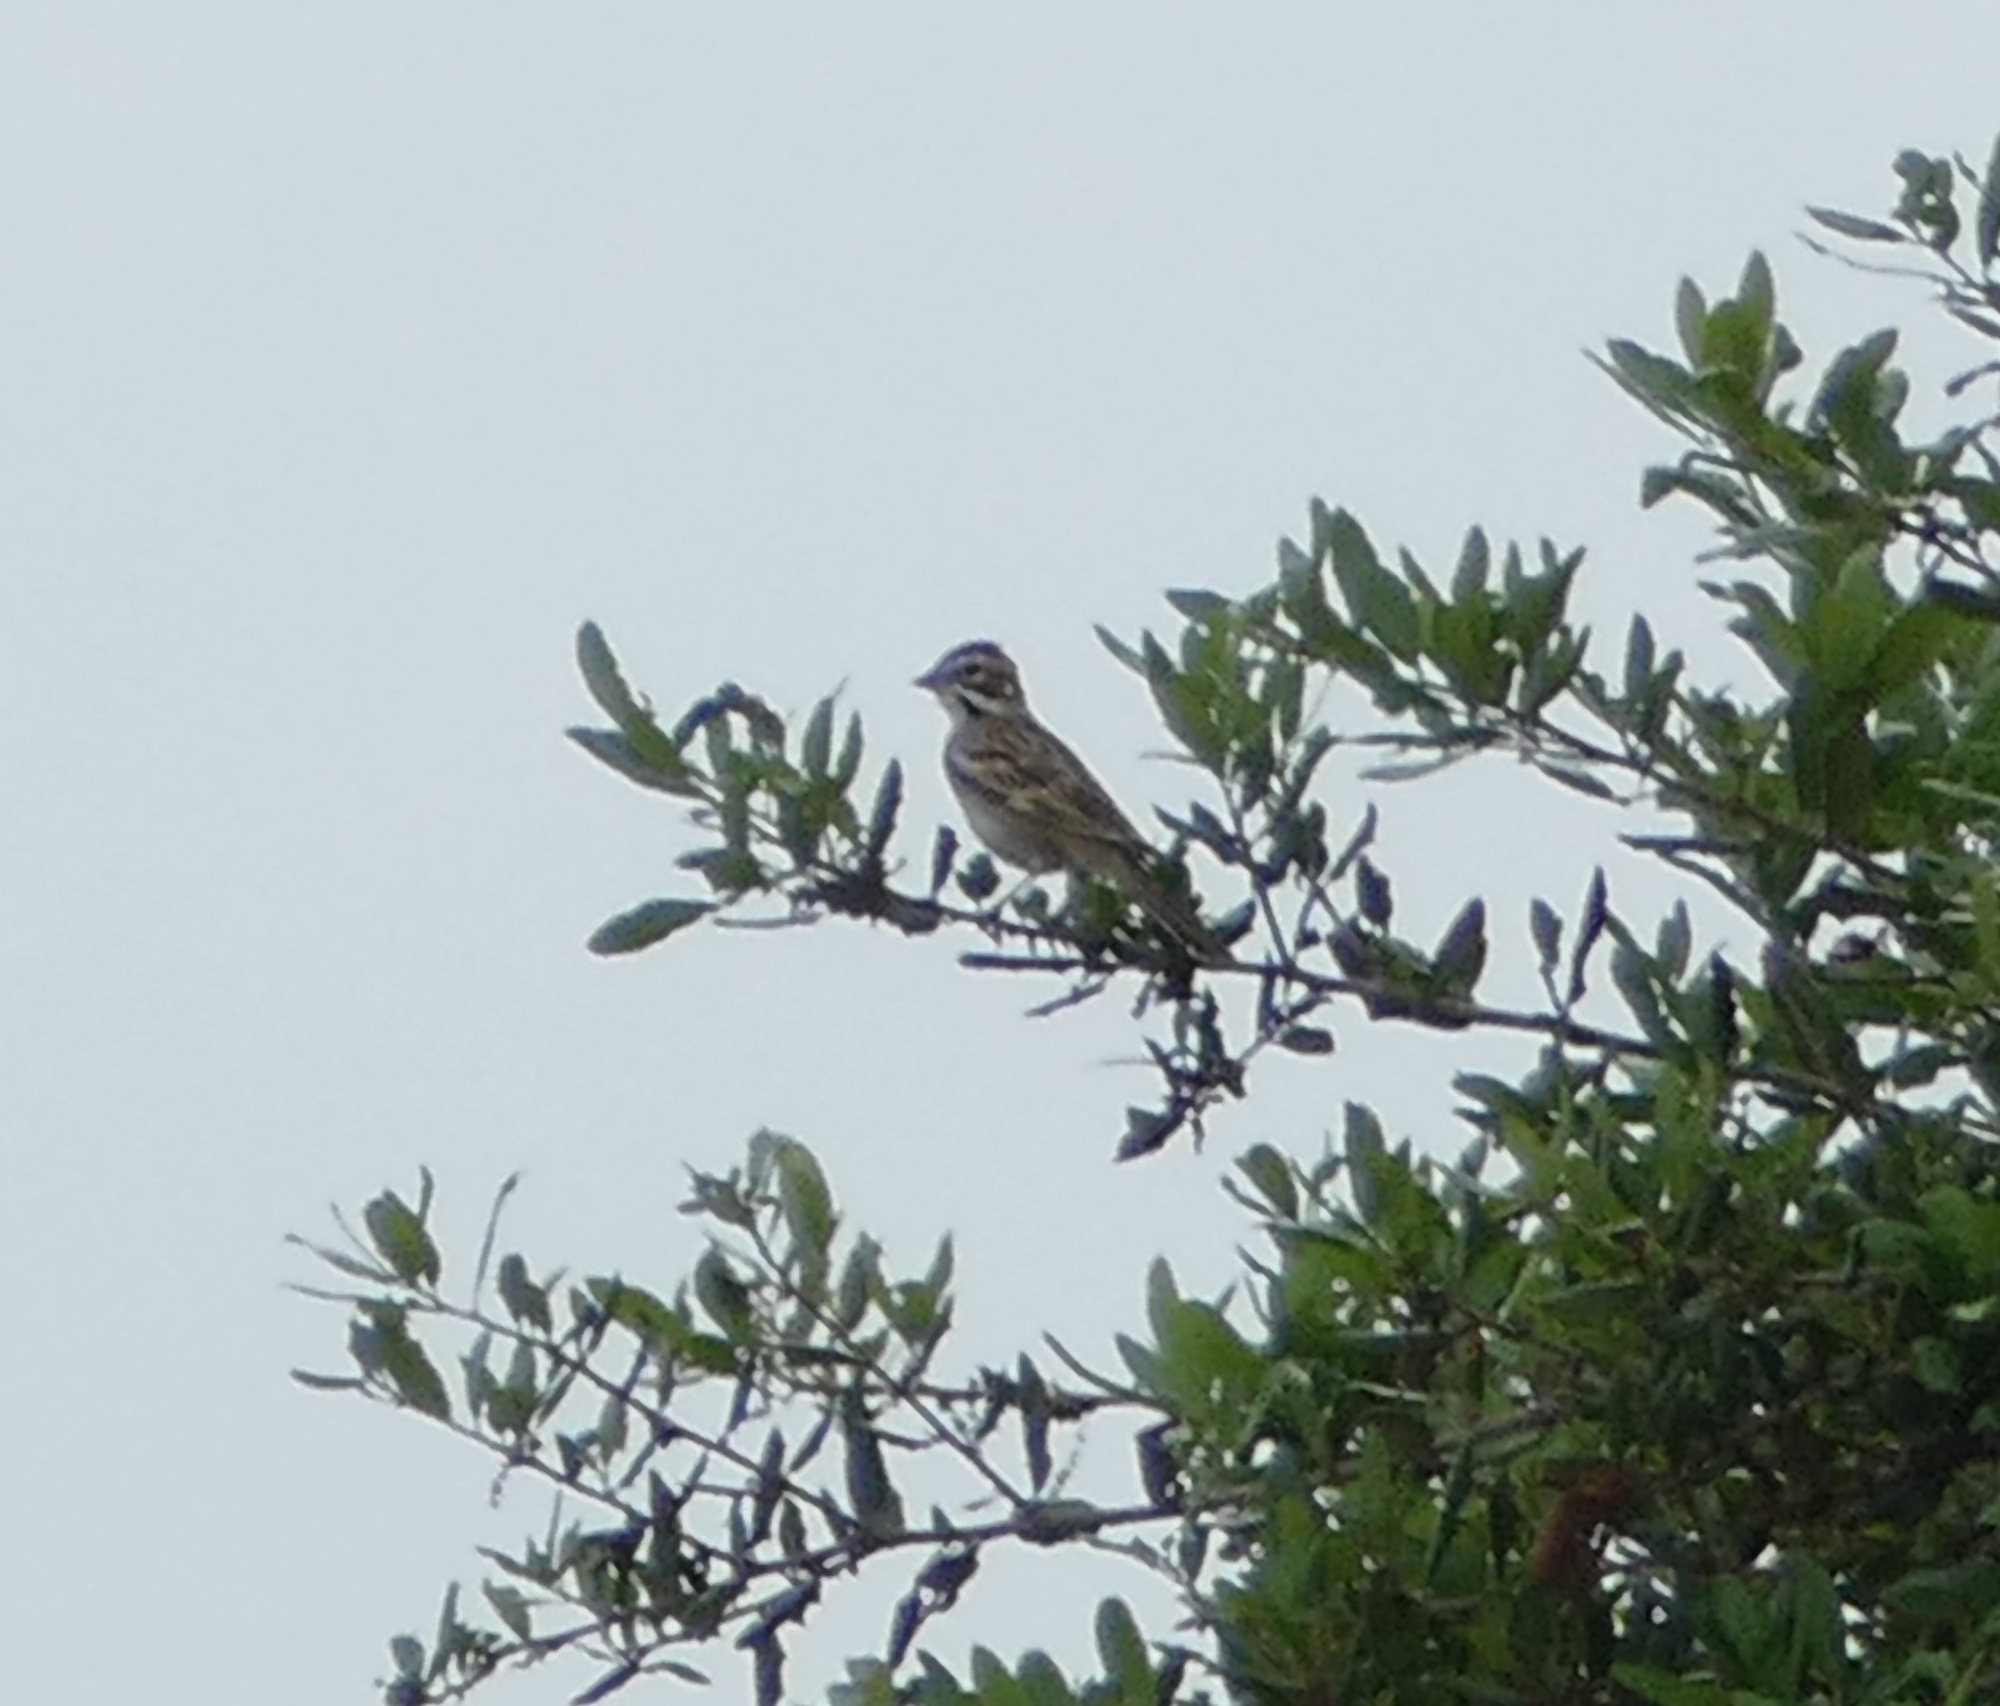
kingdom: Animalia
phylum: Chordata
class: Aves
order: Passeriformes
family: Passerellidae
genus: Chondestes
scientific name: Chondestes grammacus
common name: Lark sparrow
